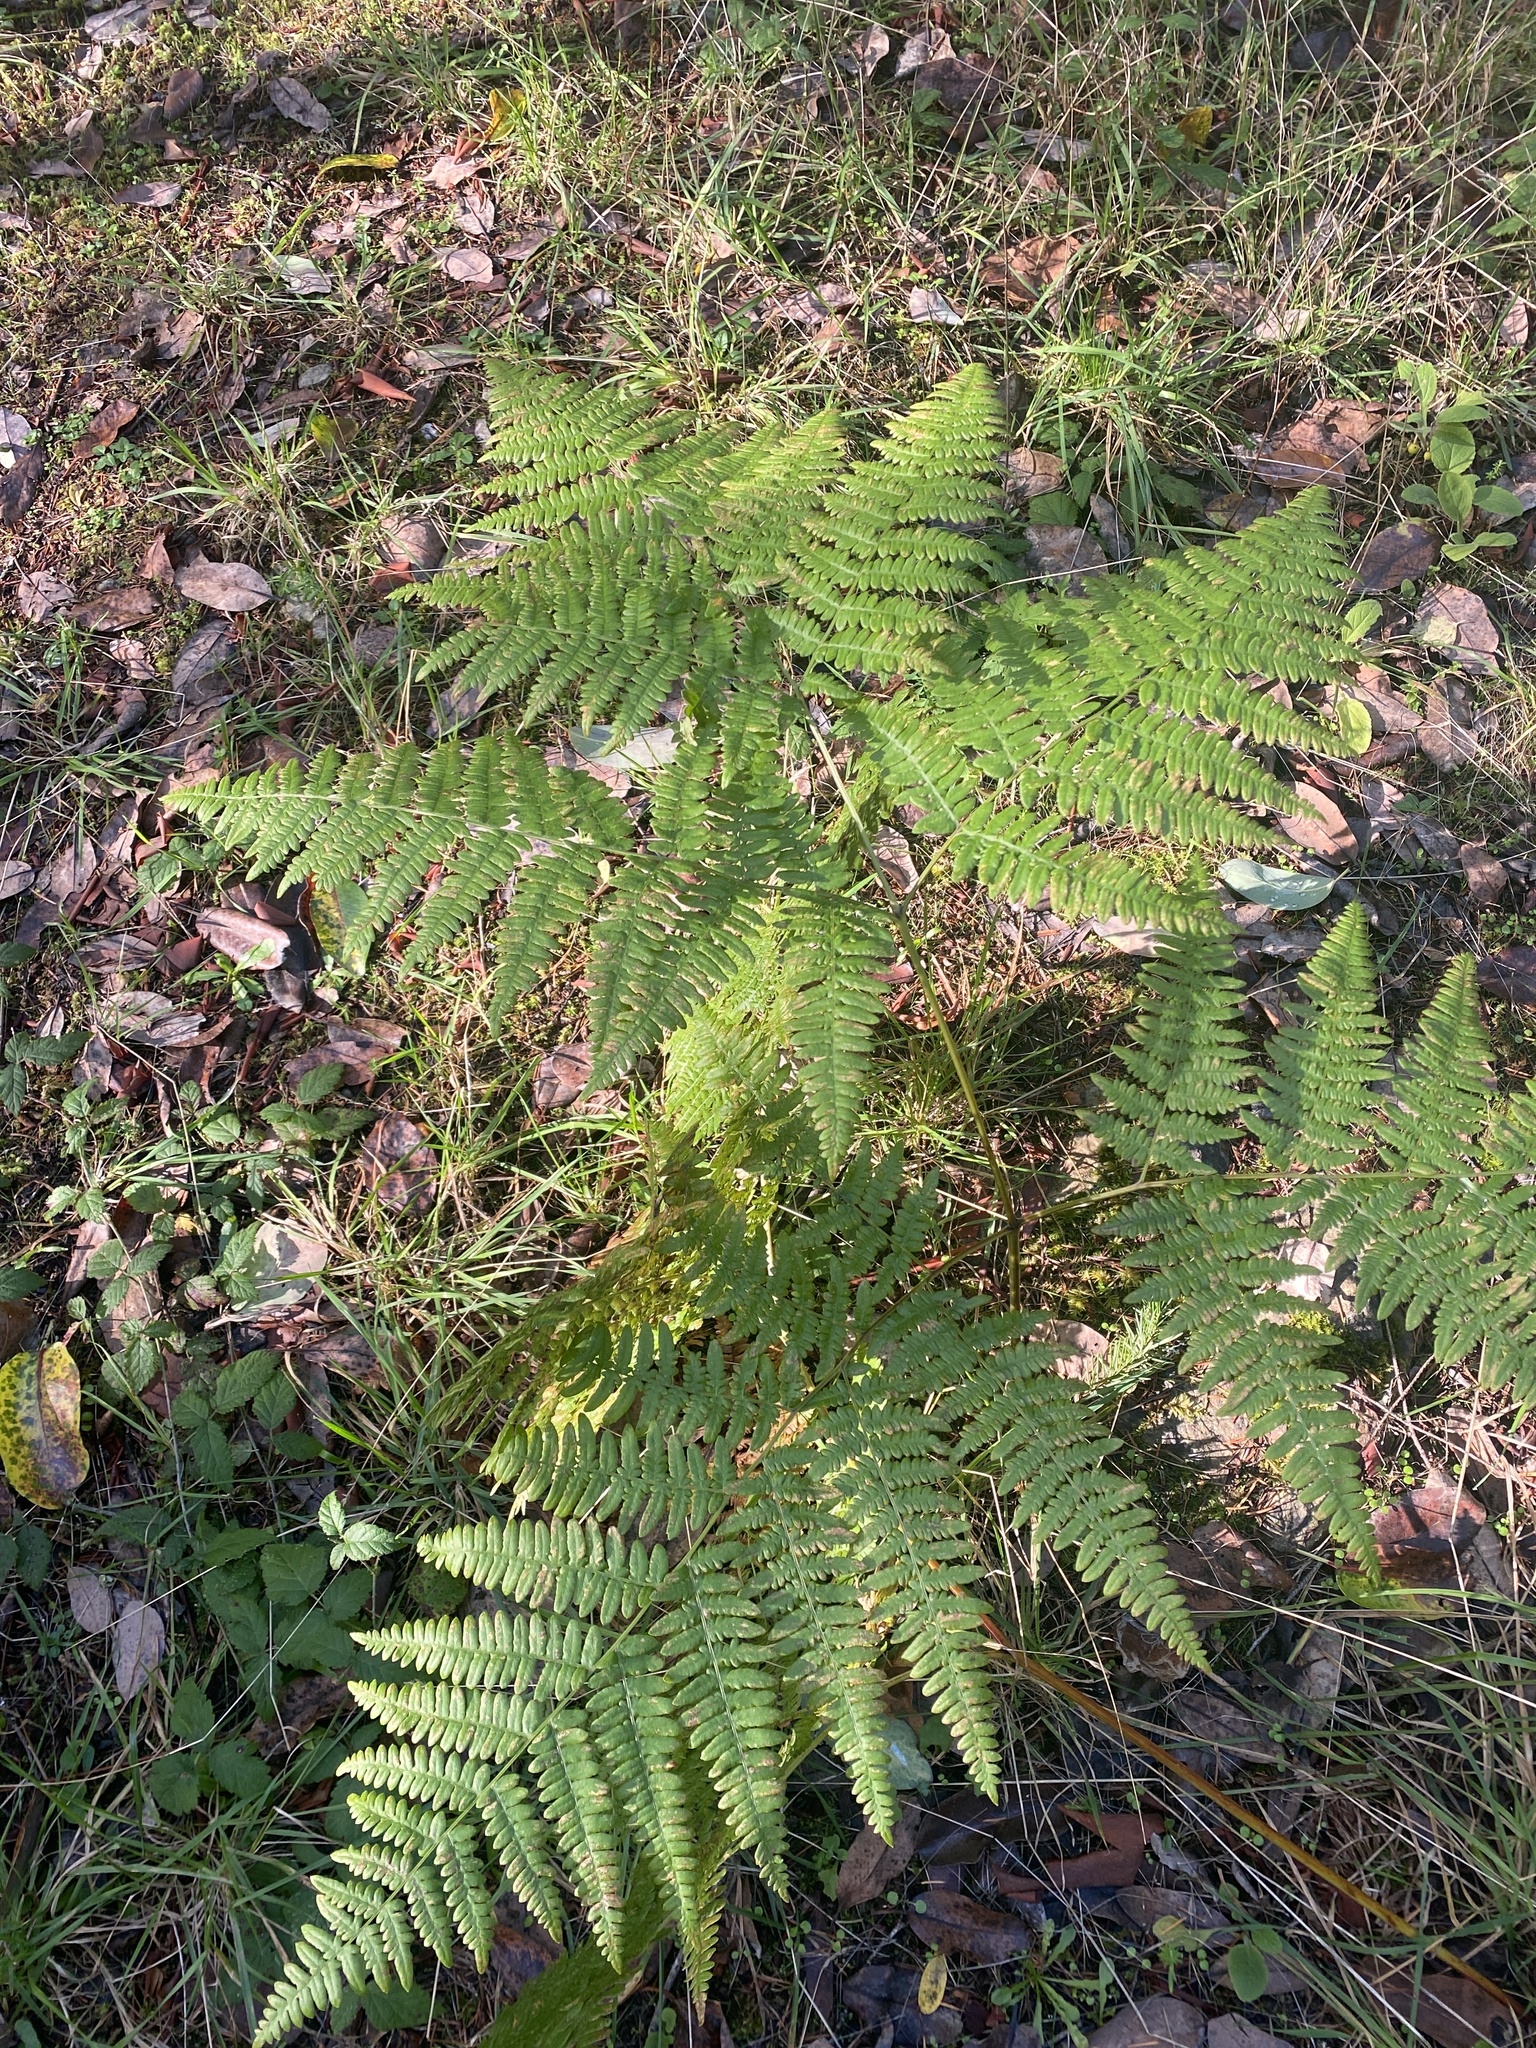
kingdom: Plantae
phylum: Tracheophyta
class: Polypodiopsida
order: Polypodiales
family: Dennstaedtiaceae
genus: Pteridium
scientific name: Pteridium aquilinum
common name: Bracken
